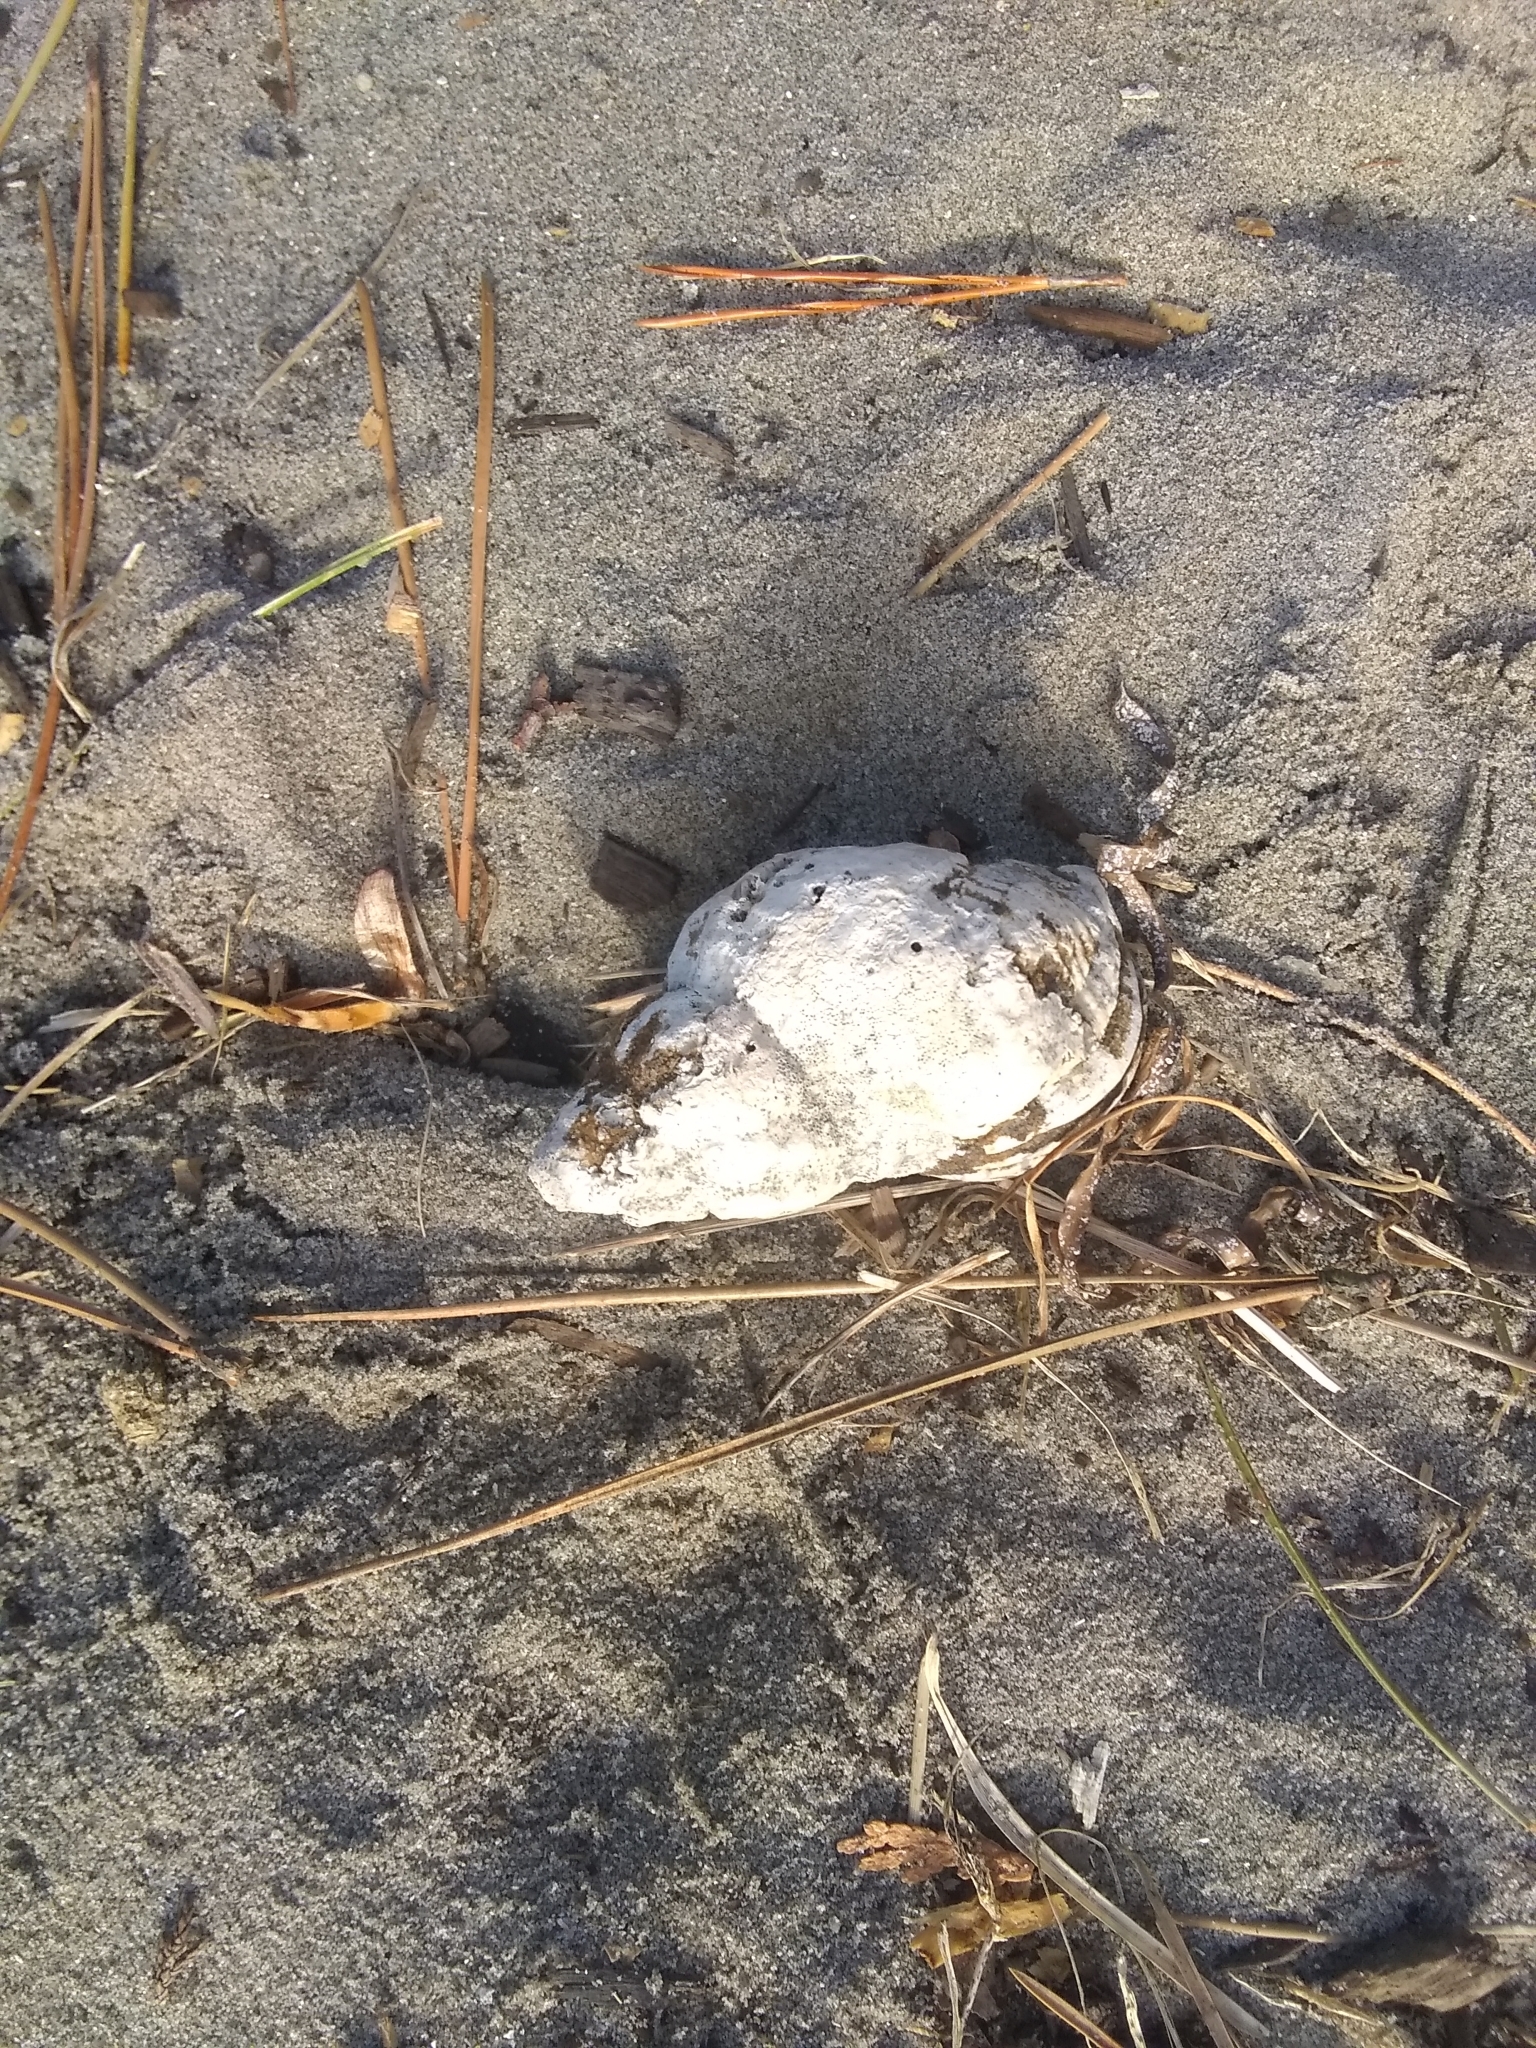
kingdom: Animalia
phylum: Mollusca
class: Gastropoda
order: Neogastropoda
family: Buccinidae
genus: Buccinum
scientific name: Buccinum undatum
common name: Common whelk
